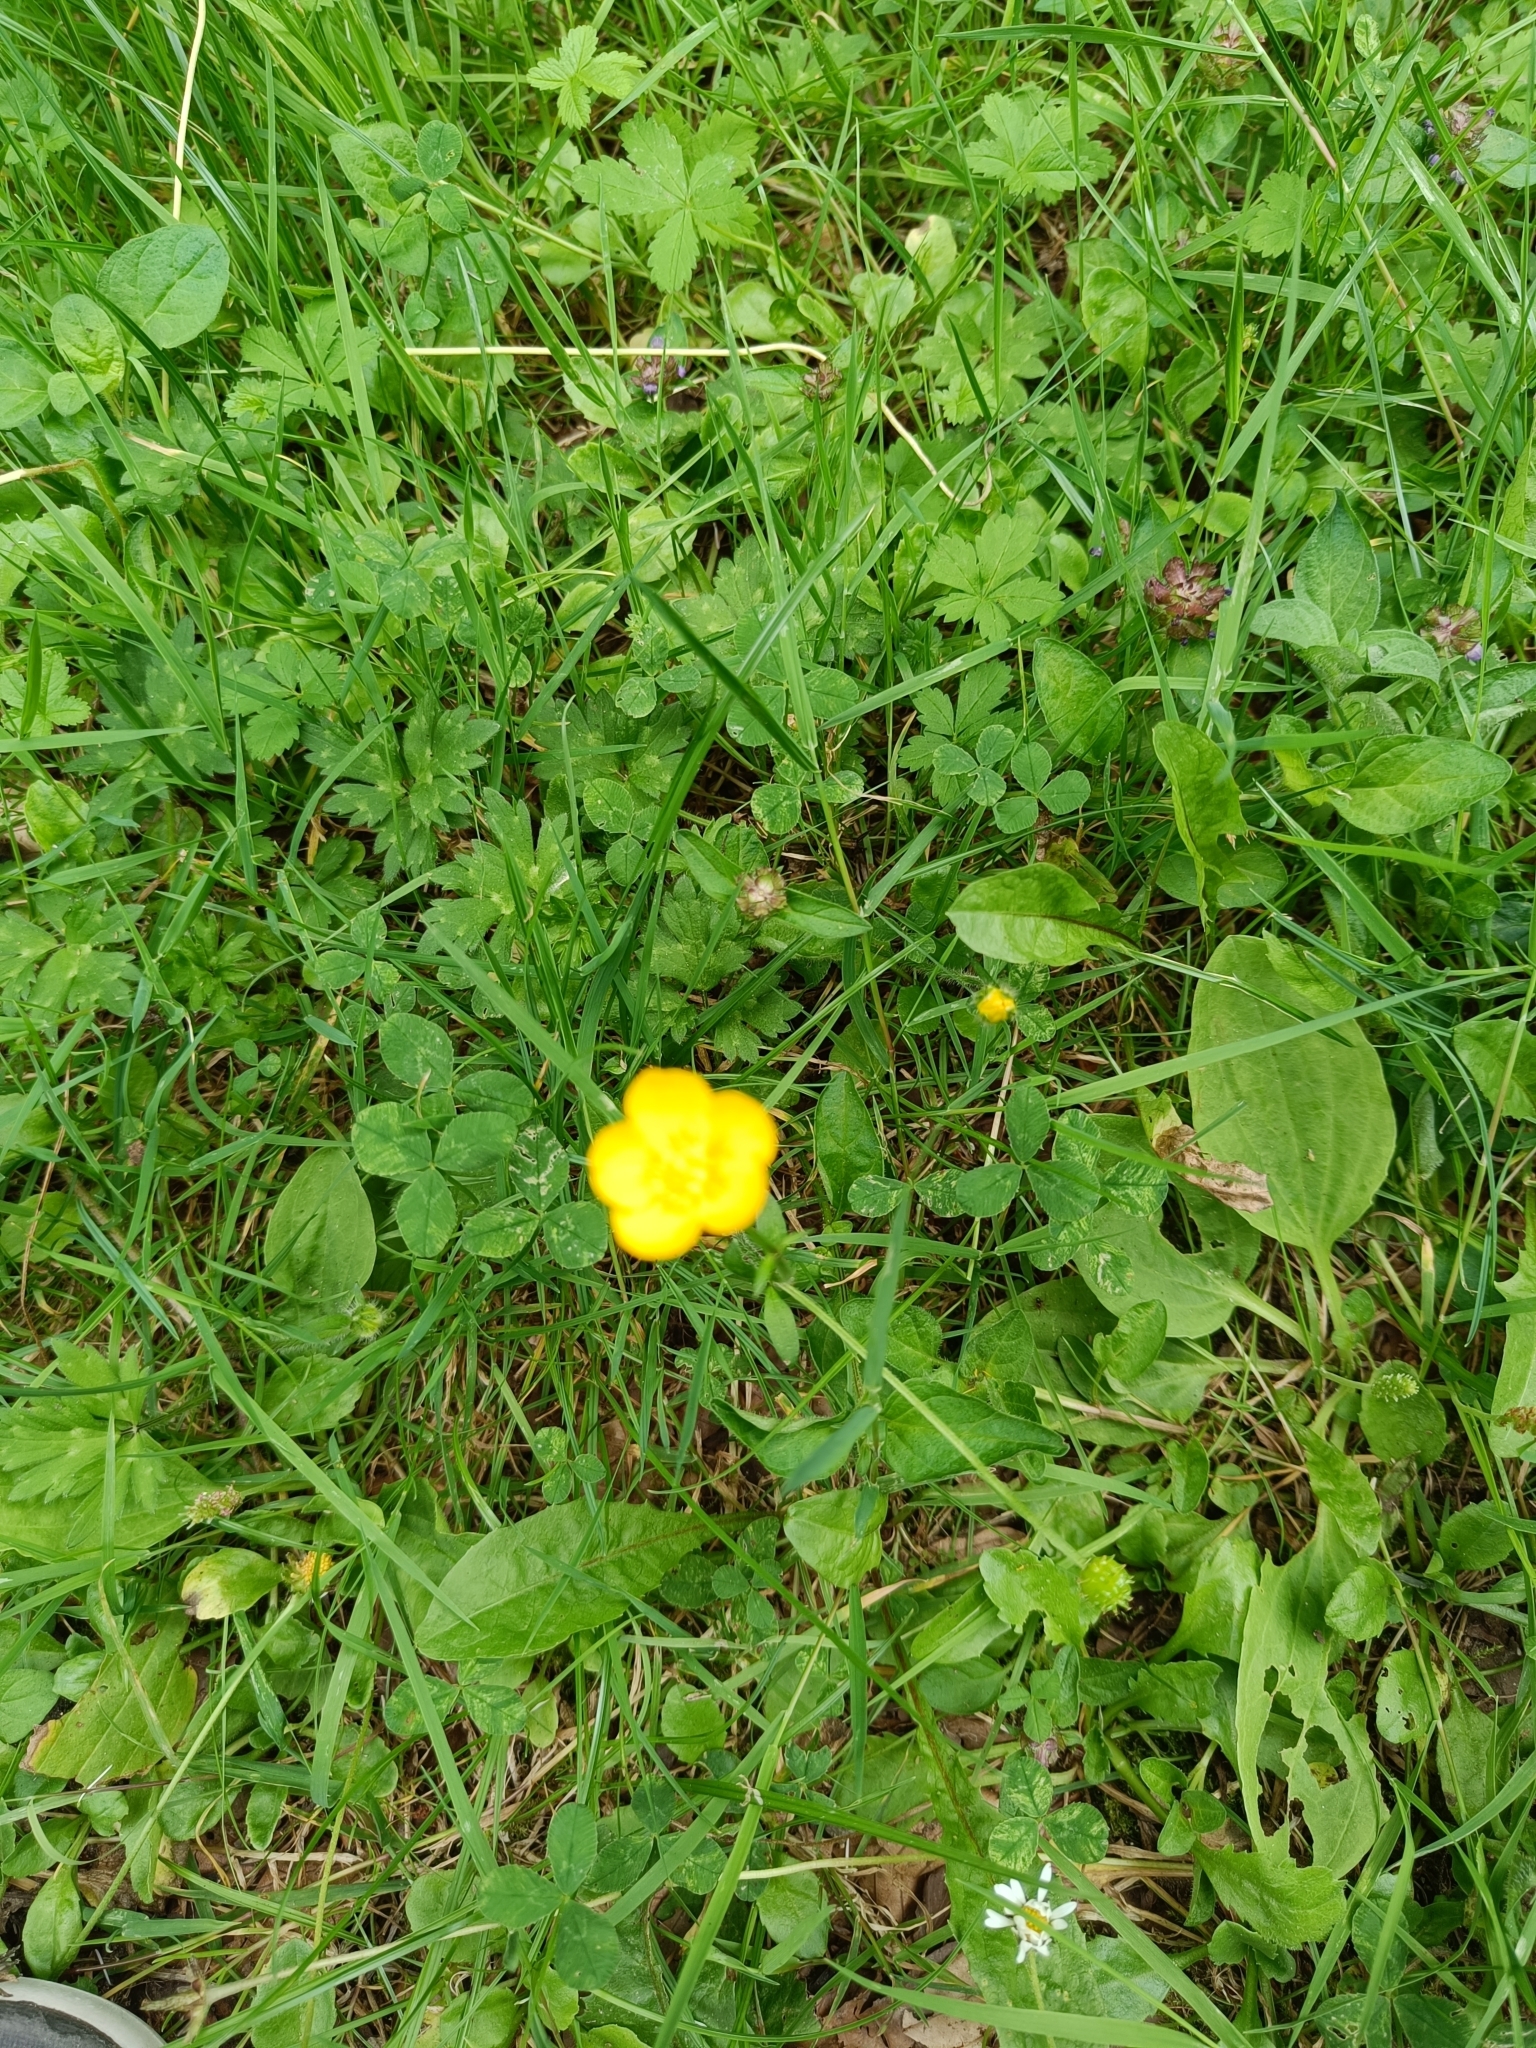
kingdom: Plantae
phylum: Tracheophyta
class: Magnoliopsida
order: Ranunculales
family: Ranunculaceae
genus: Ranunculus
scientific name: Ranunculus repens
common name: Creeping buttercup
